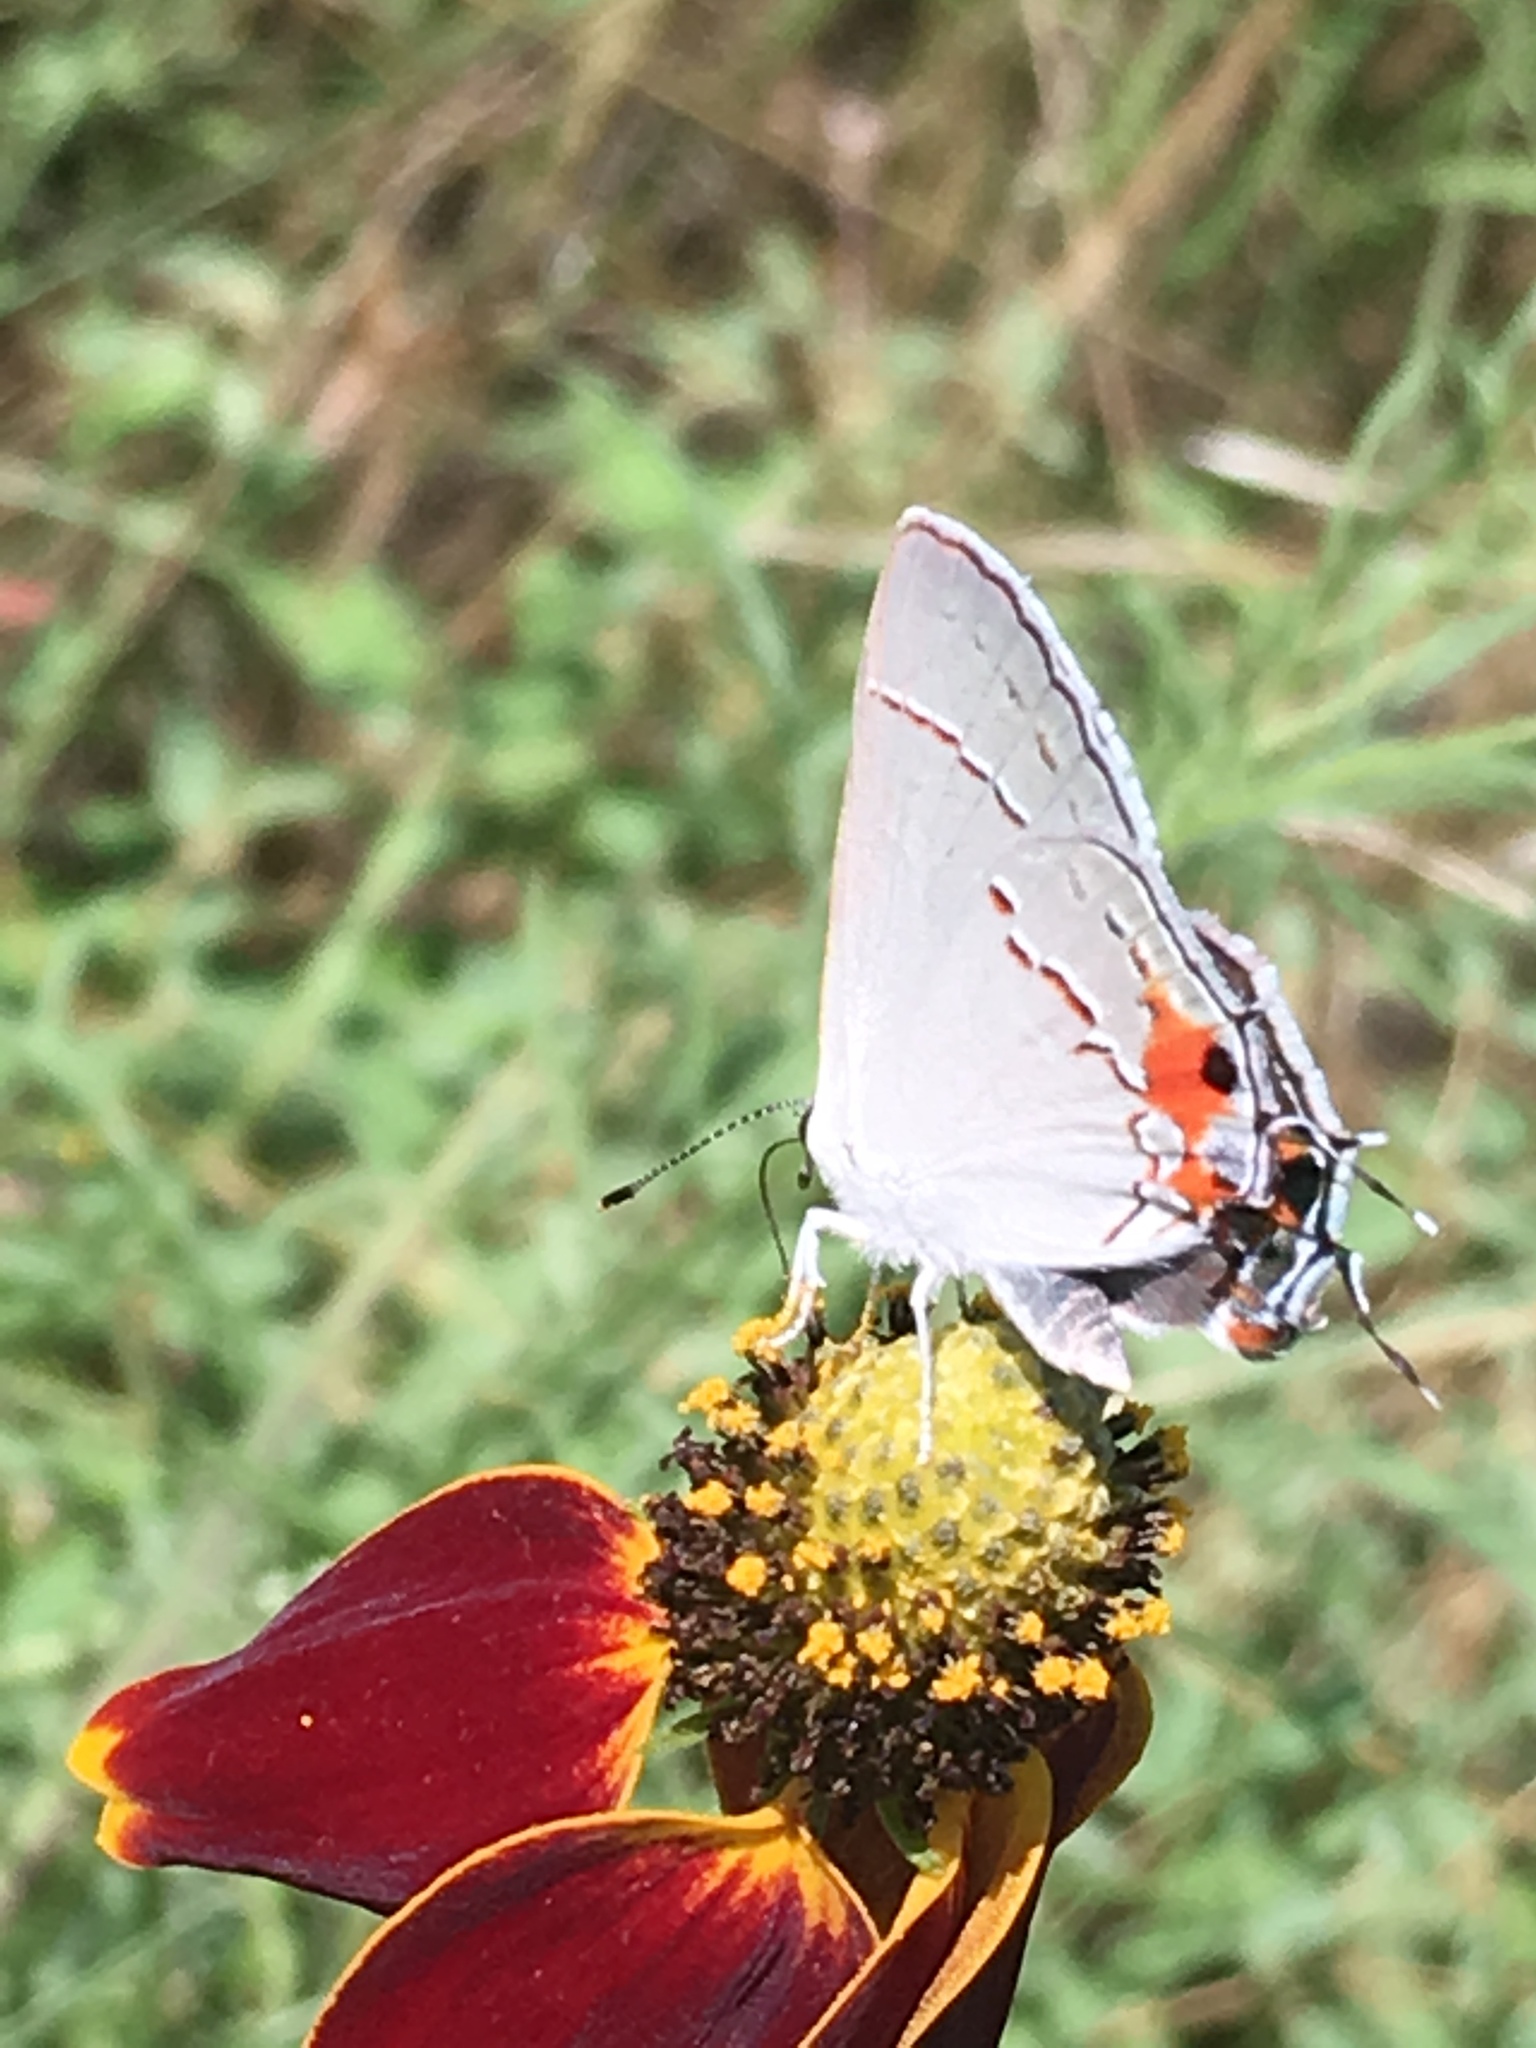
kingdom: Animalia
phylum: Arthropoda
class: Insecta
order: Lepidoptera
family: Lycaenidae
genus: Strymon
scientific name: Strymon melinus
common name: Gray hairstreak
